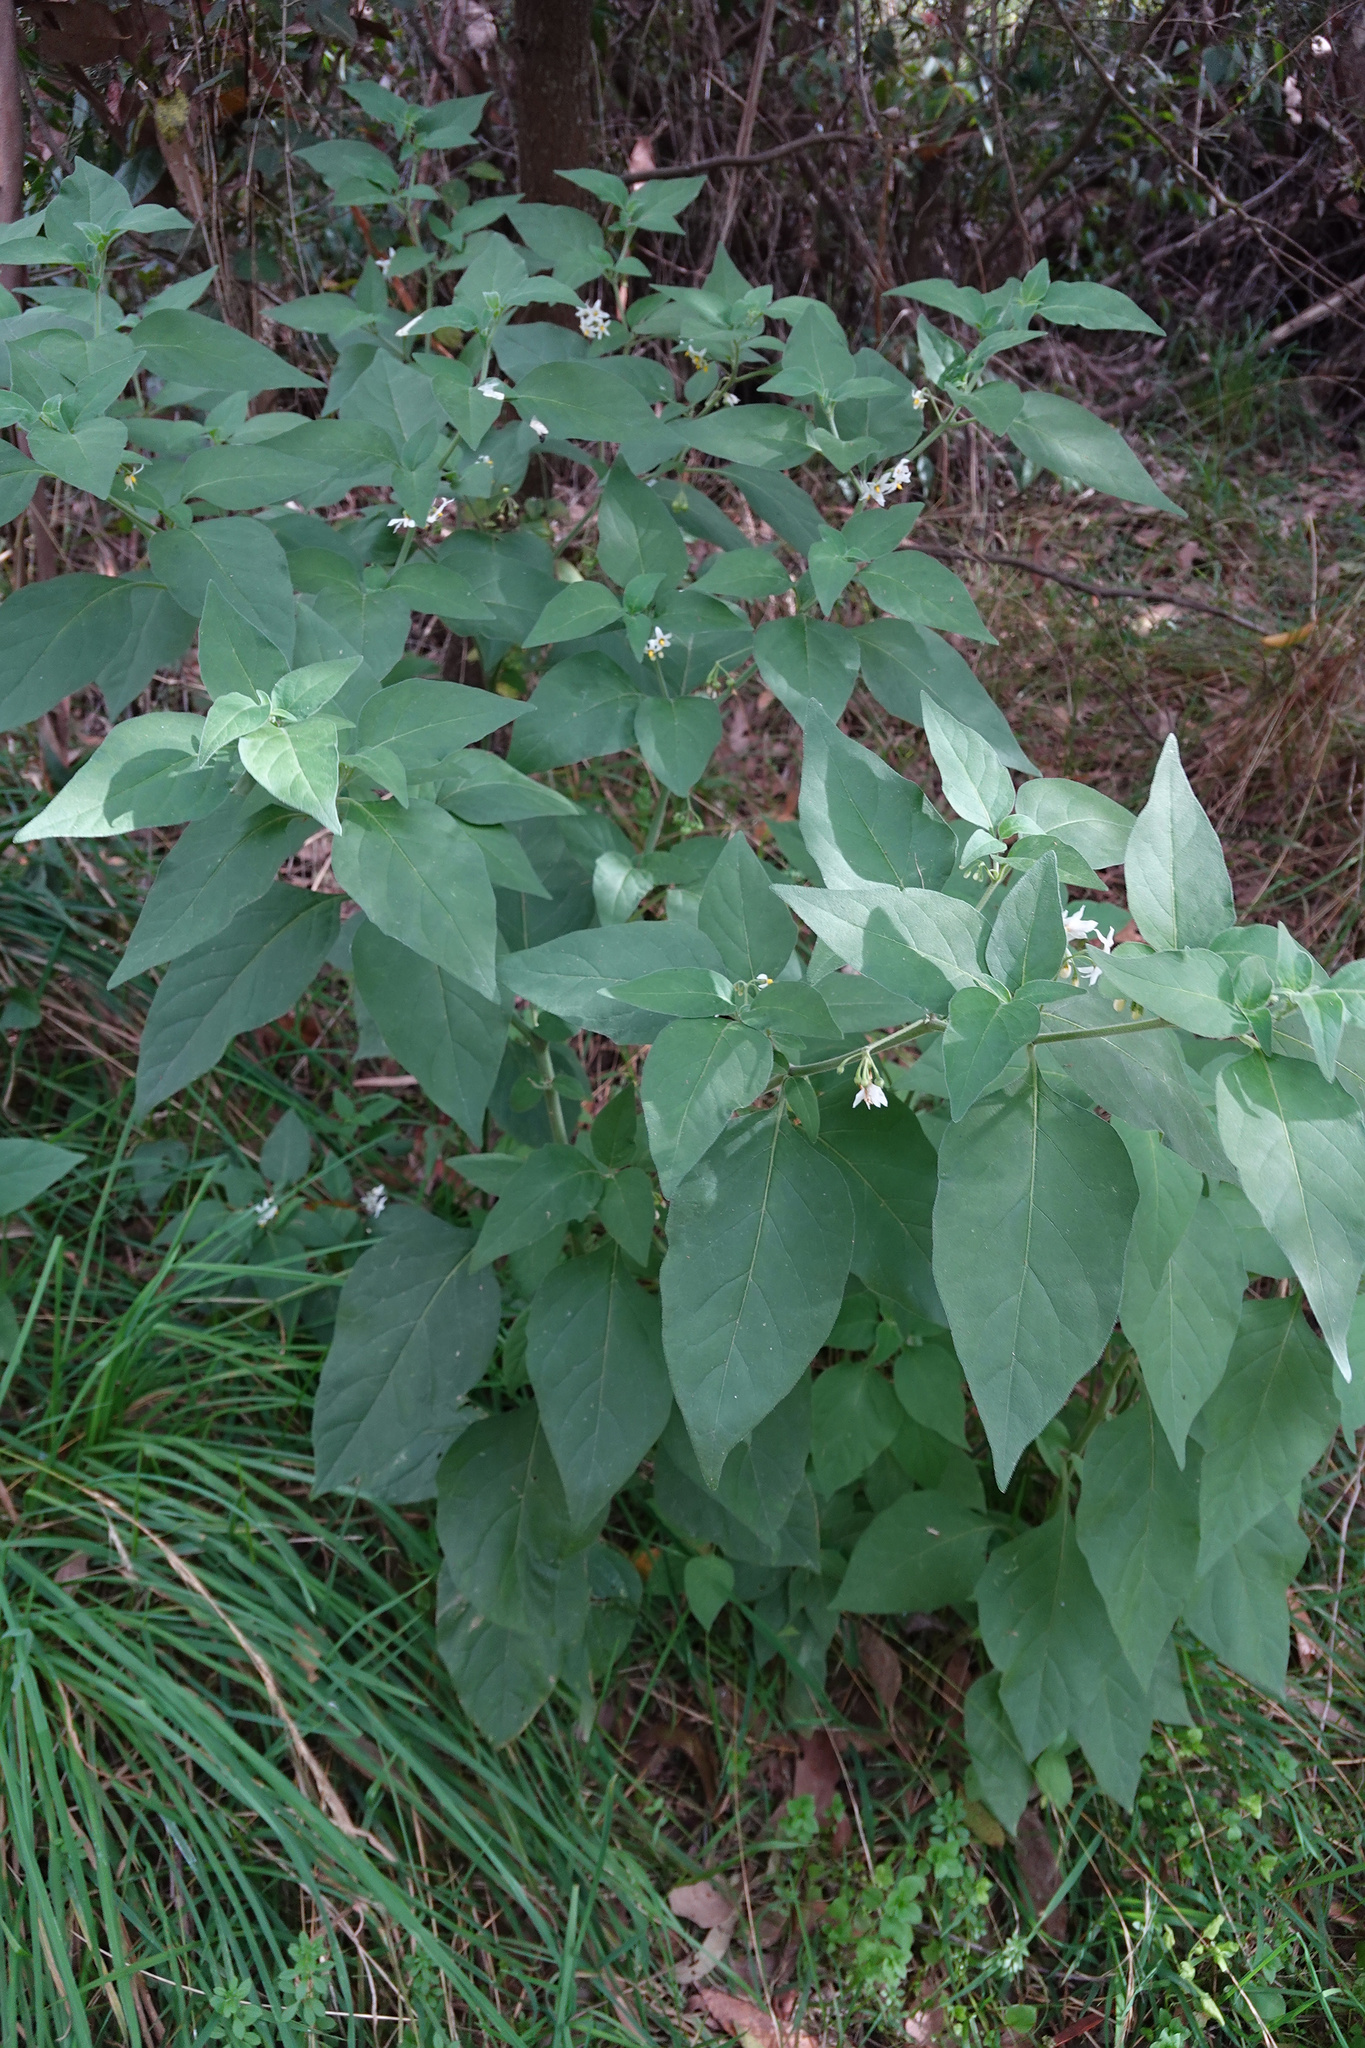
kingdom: Plantae
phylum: Tracheophyta
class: Magnoliopsida
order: Solanales
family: Solanaceae
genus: Solanum
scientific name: Solanum chenopodioides
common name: Tall nightshade
